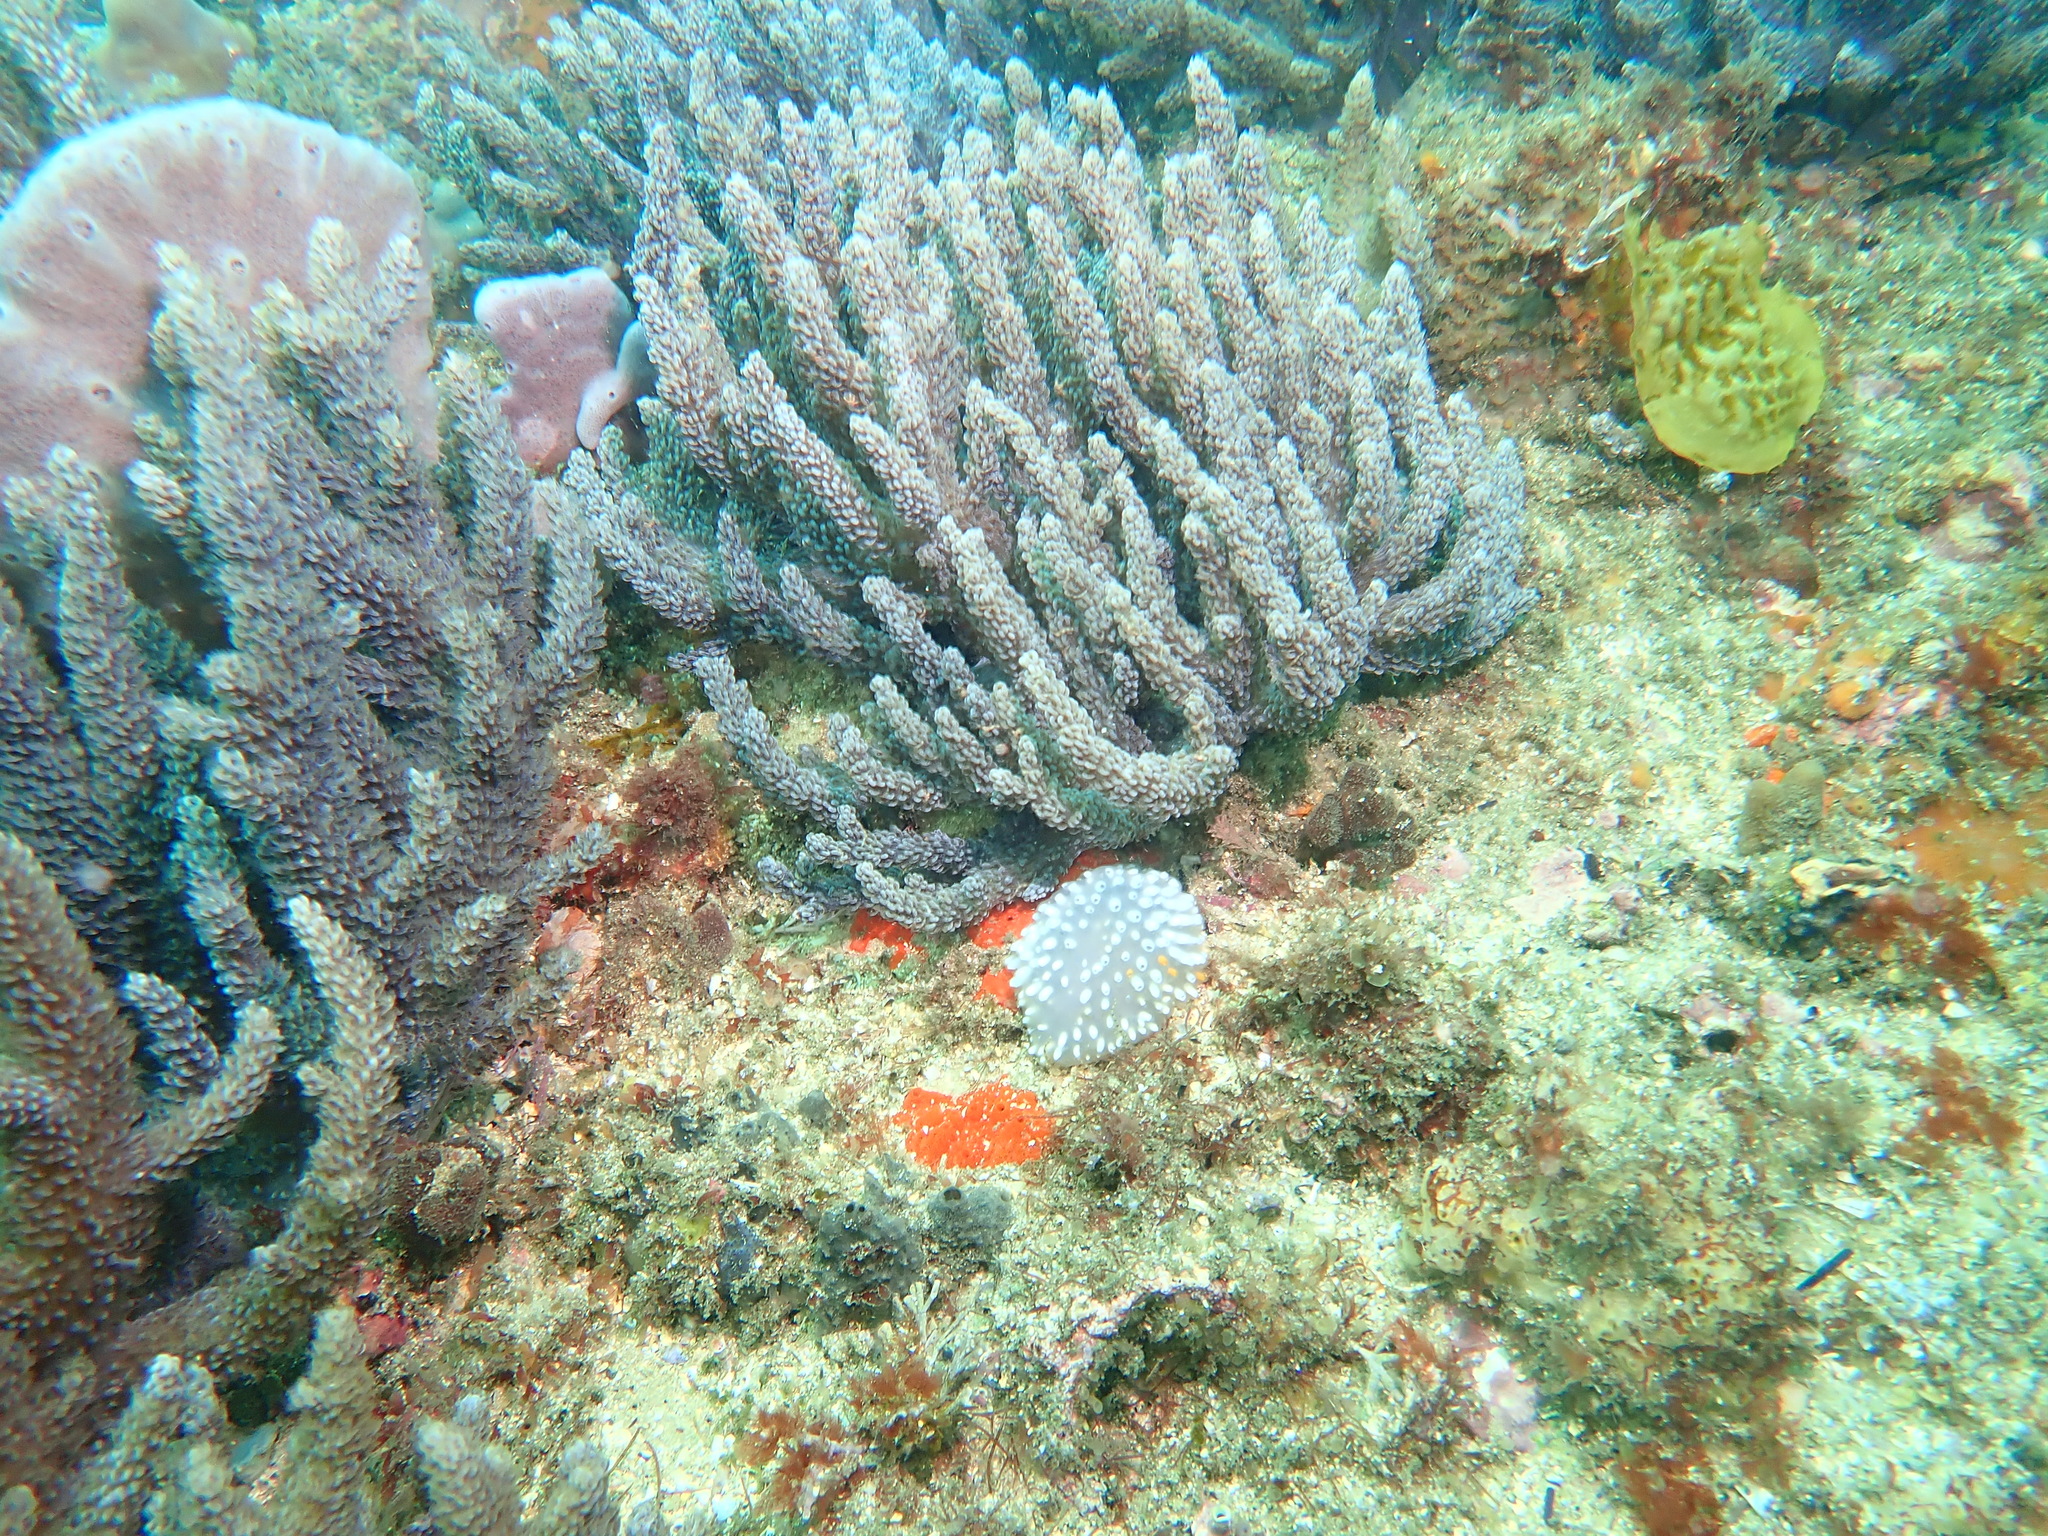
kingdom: Animalia
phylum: Chordata
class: Ascidiacea
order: Aplousobranchia
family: Polycitoridae
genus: Polycitor
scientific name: Polycitor giganteus
